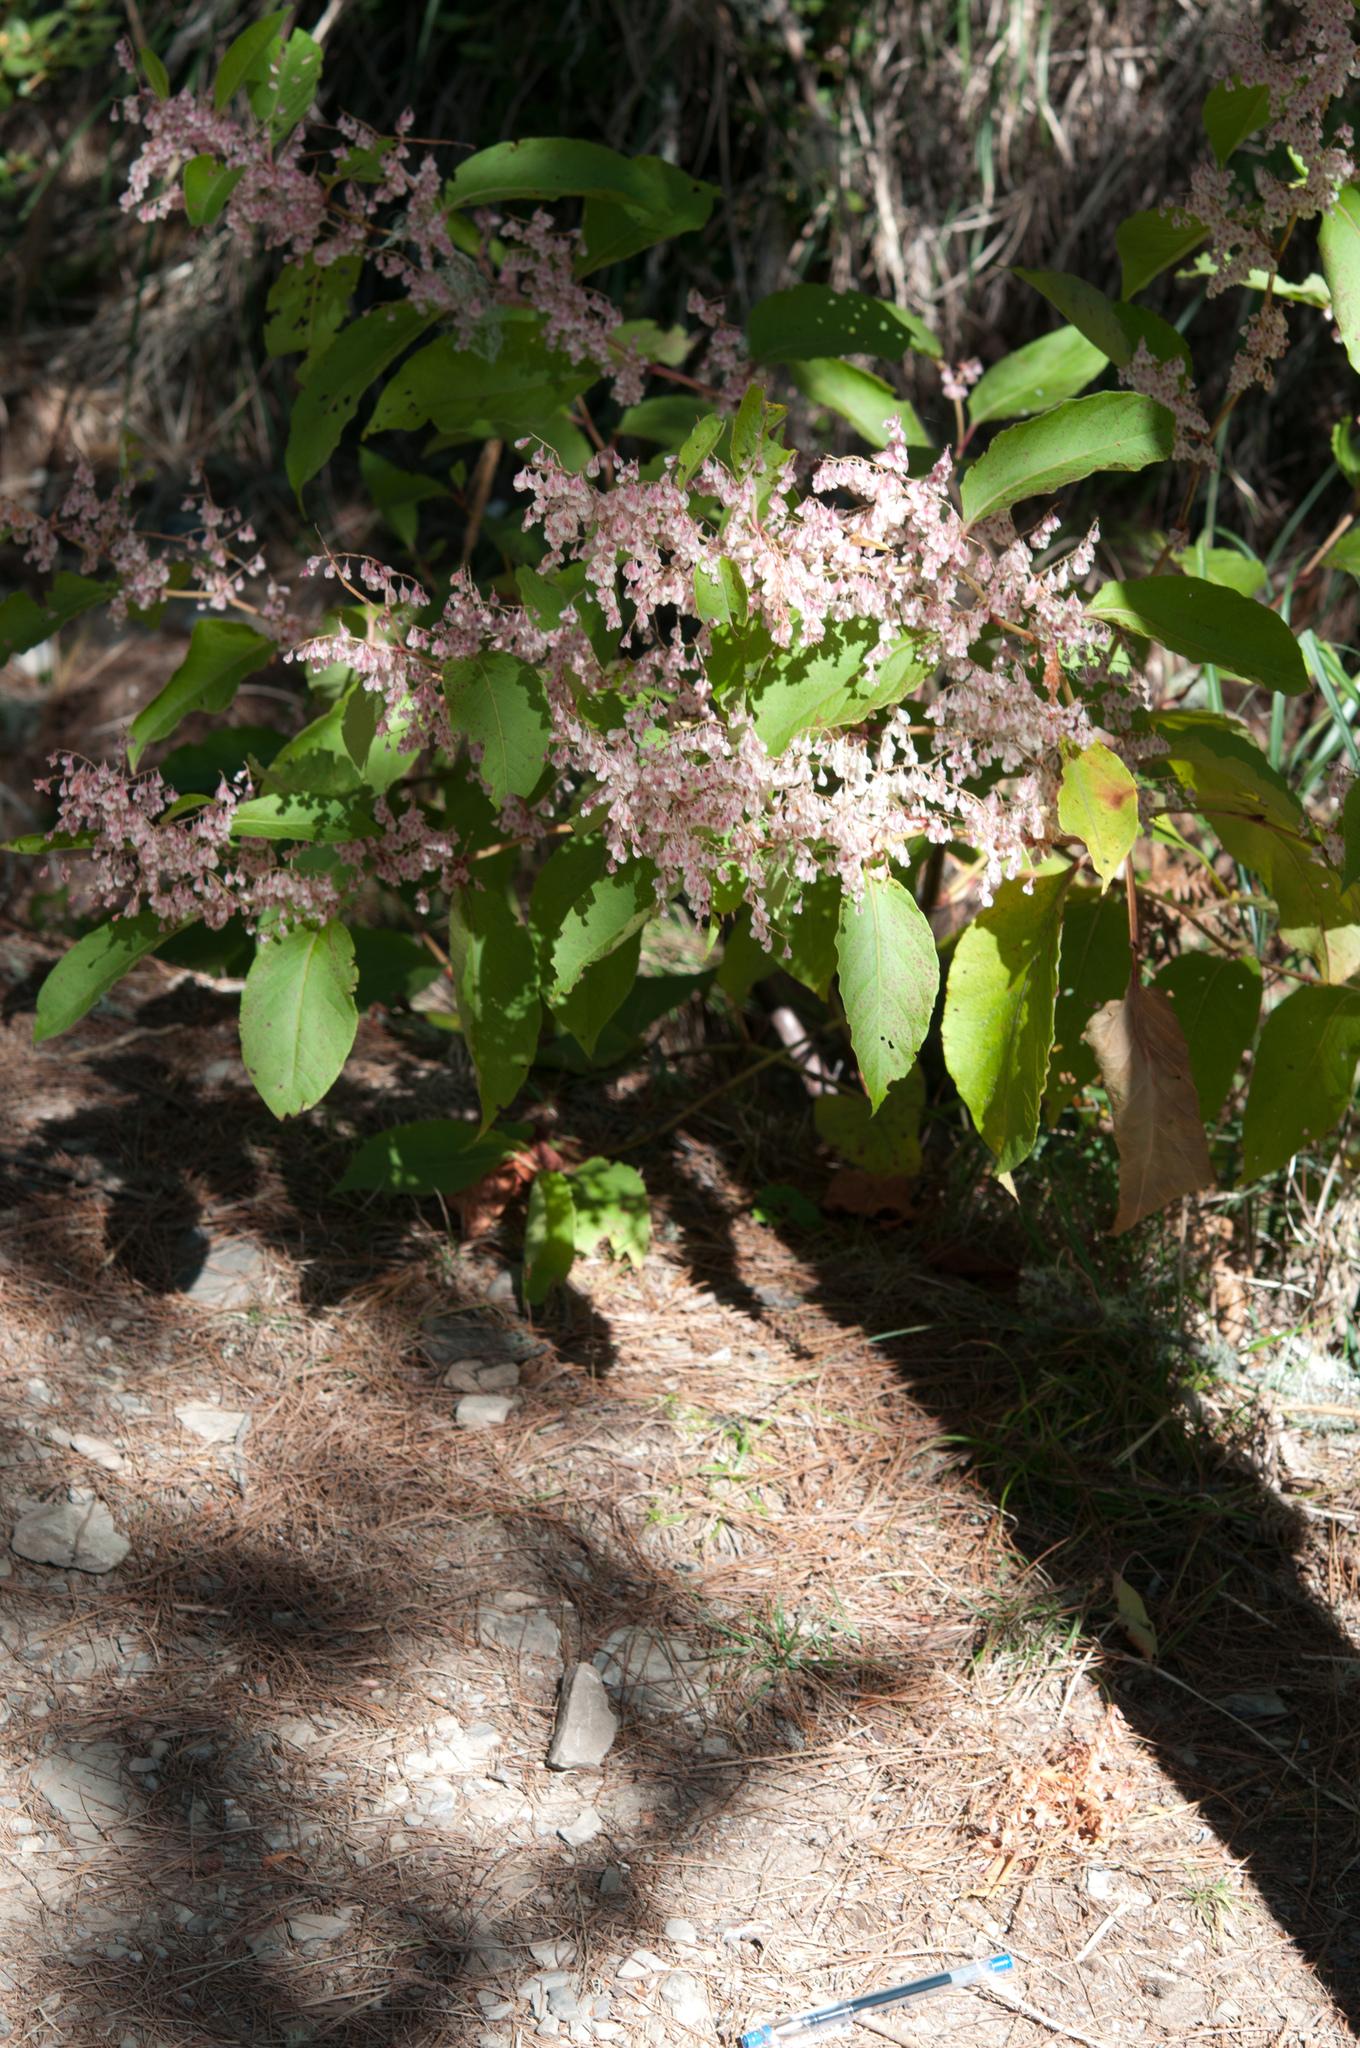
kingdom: Plantae
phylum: Tracheophyta
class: Magnoliopsida
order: Caryophyllales
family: Polygonaceae
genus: Reynoutria
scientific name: Reynoutria japonica
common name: Japanese knotweed
